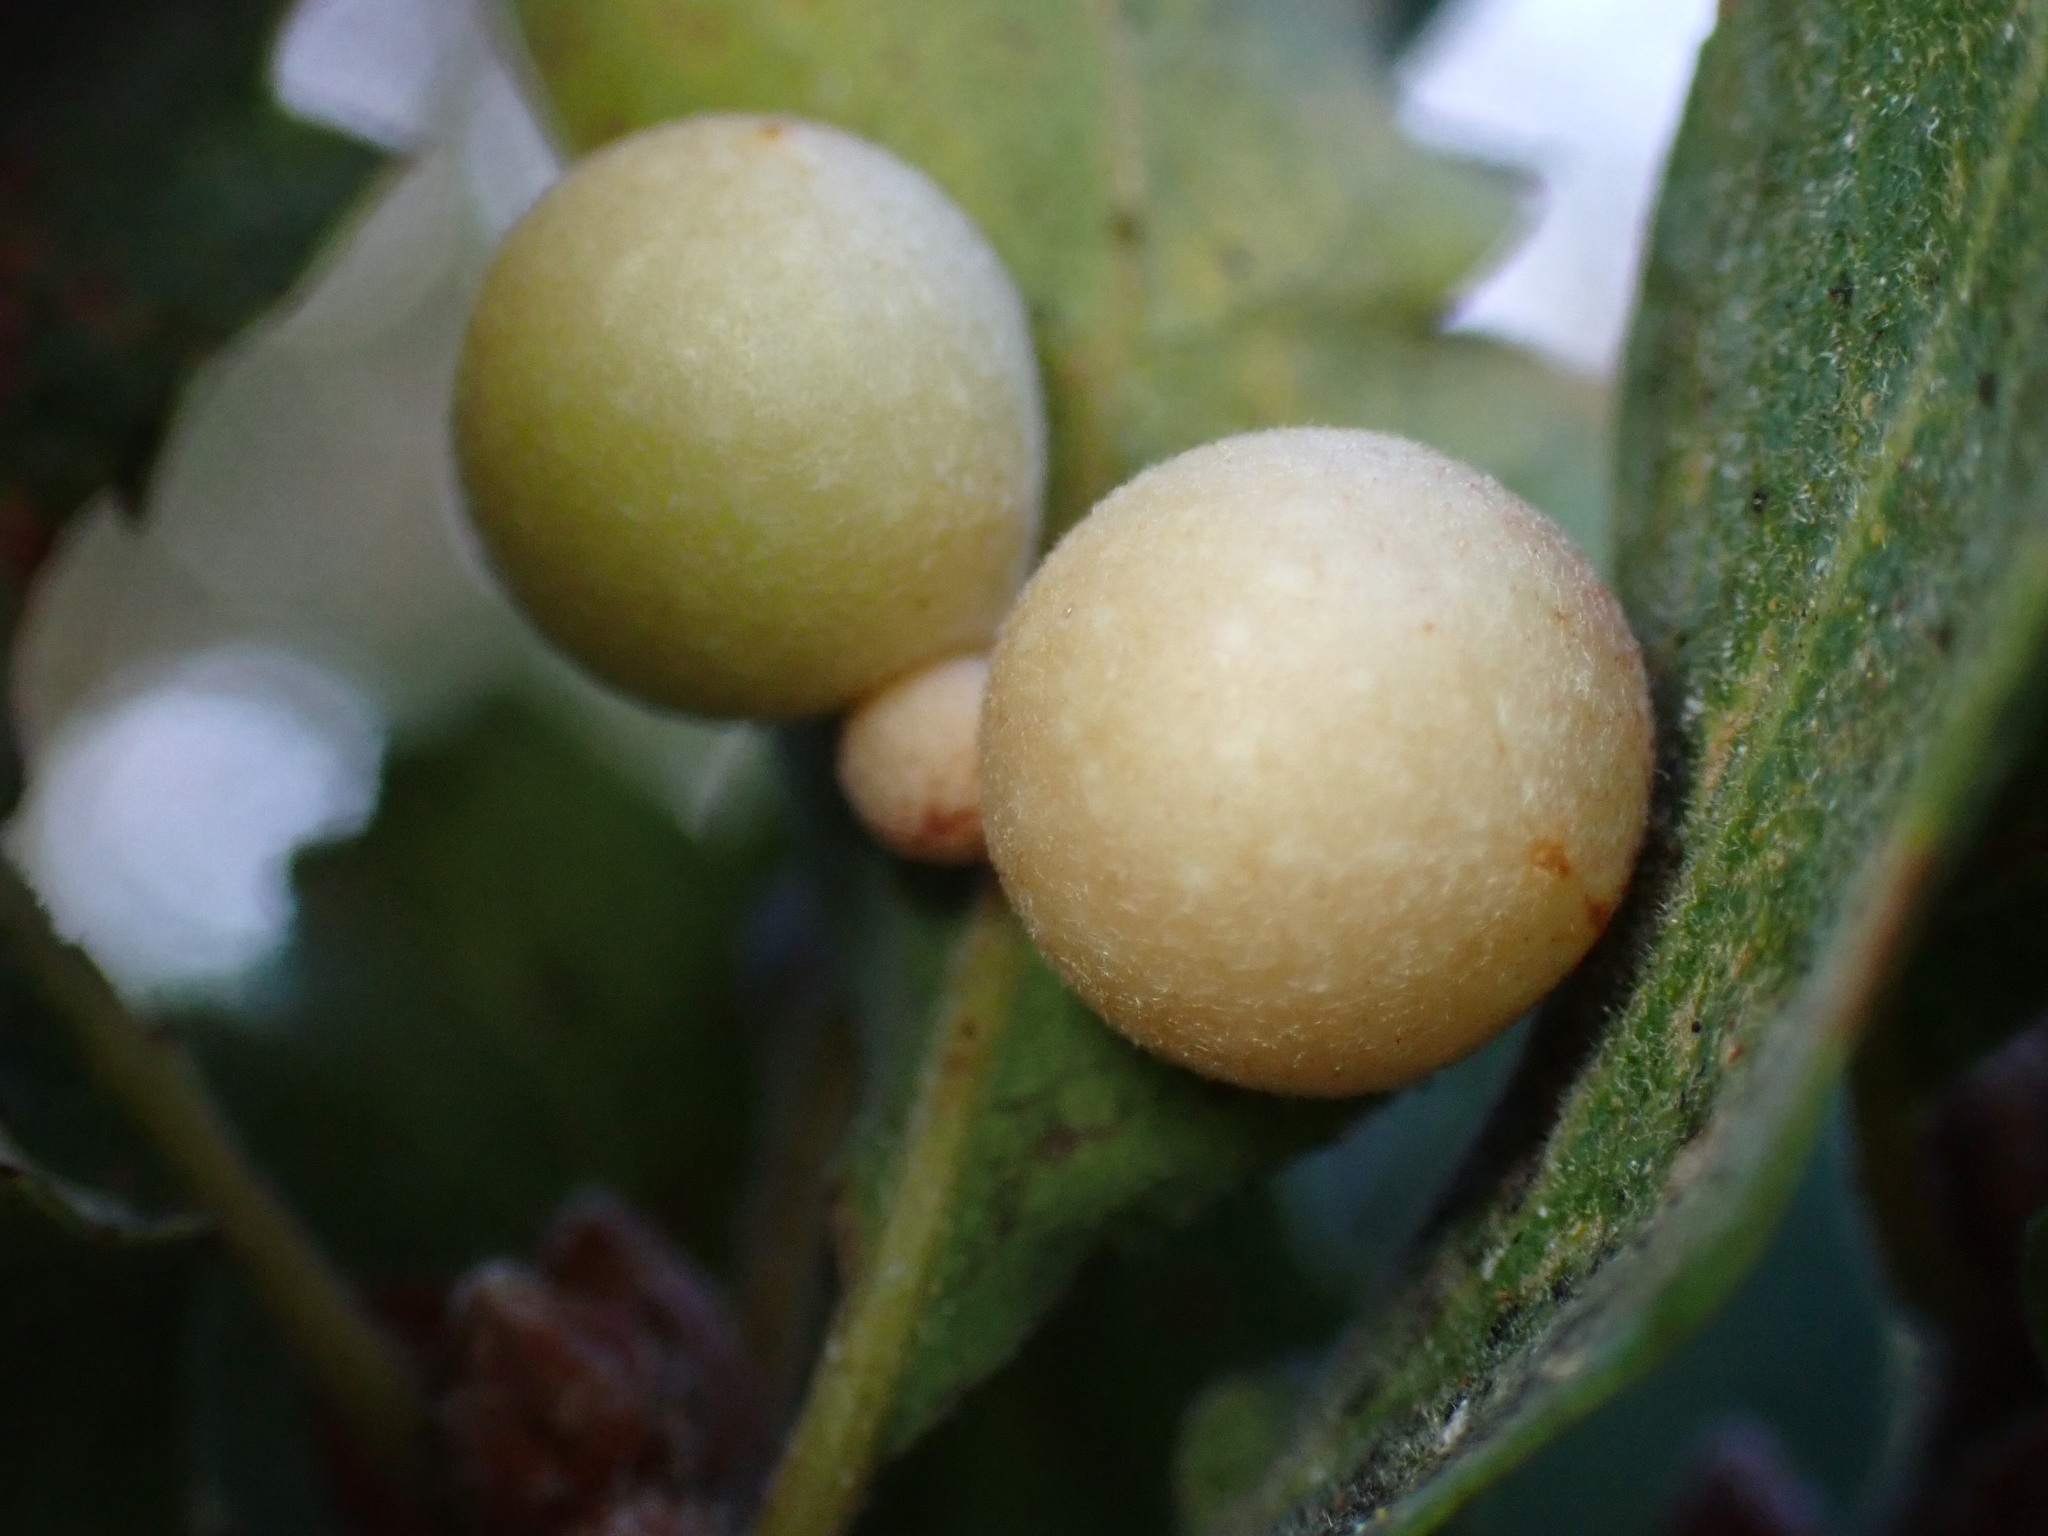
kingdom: Animalia
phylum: Arthropoda
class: Insecta
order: Hymenoptera
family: Cynipidae
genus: Andricus
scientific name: Andricus
